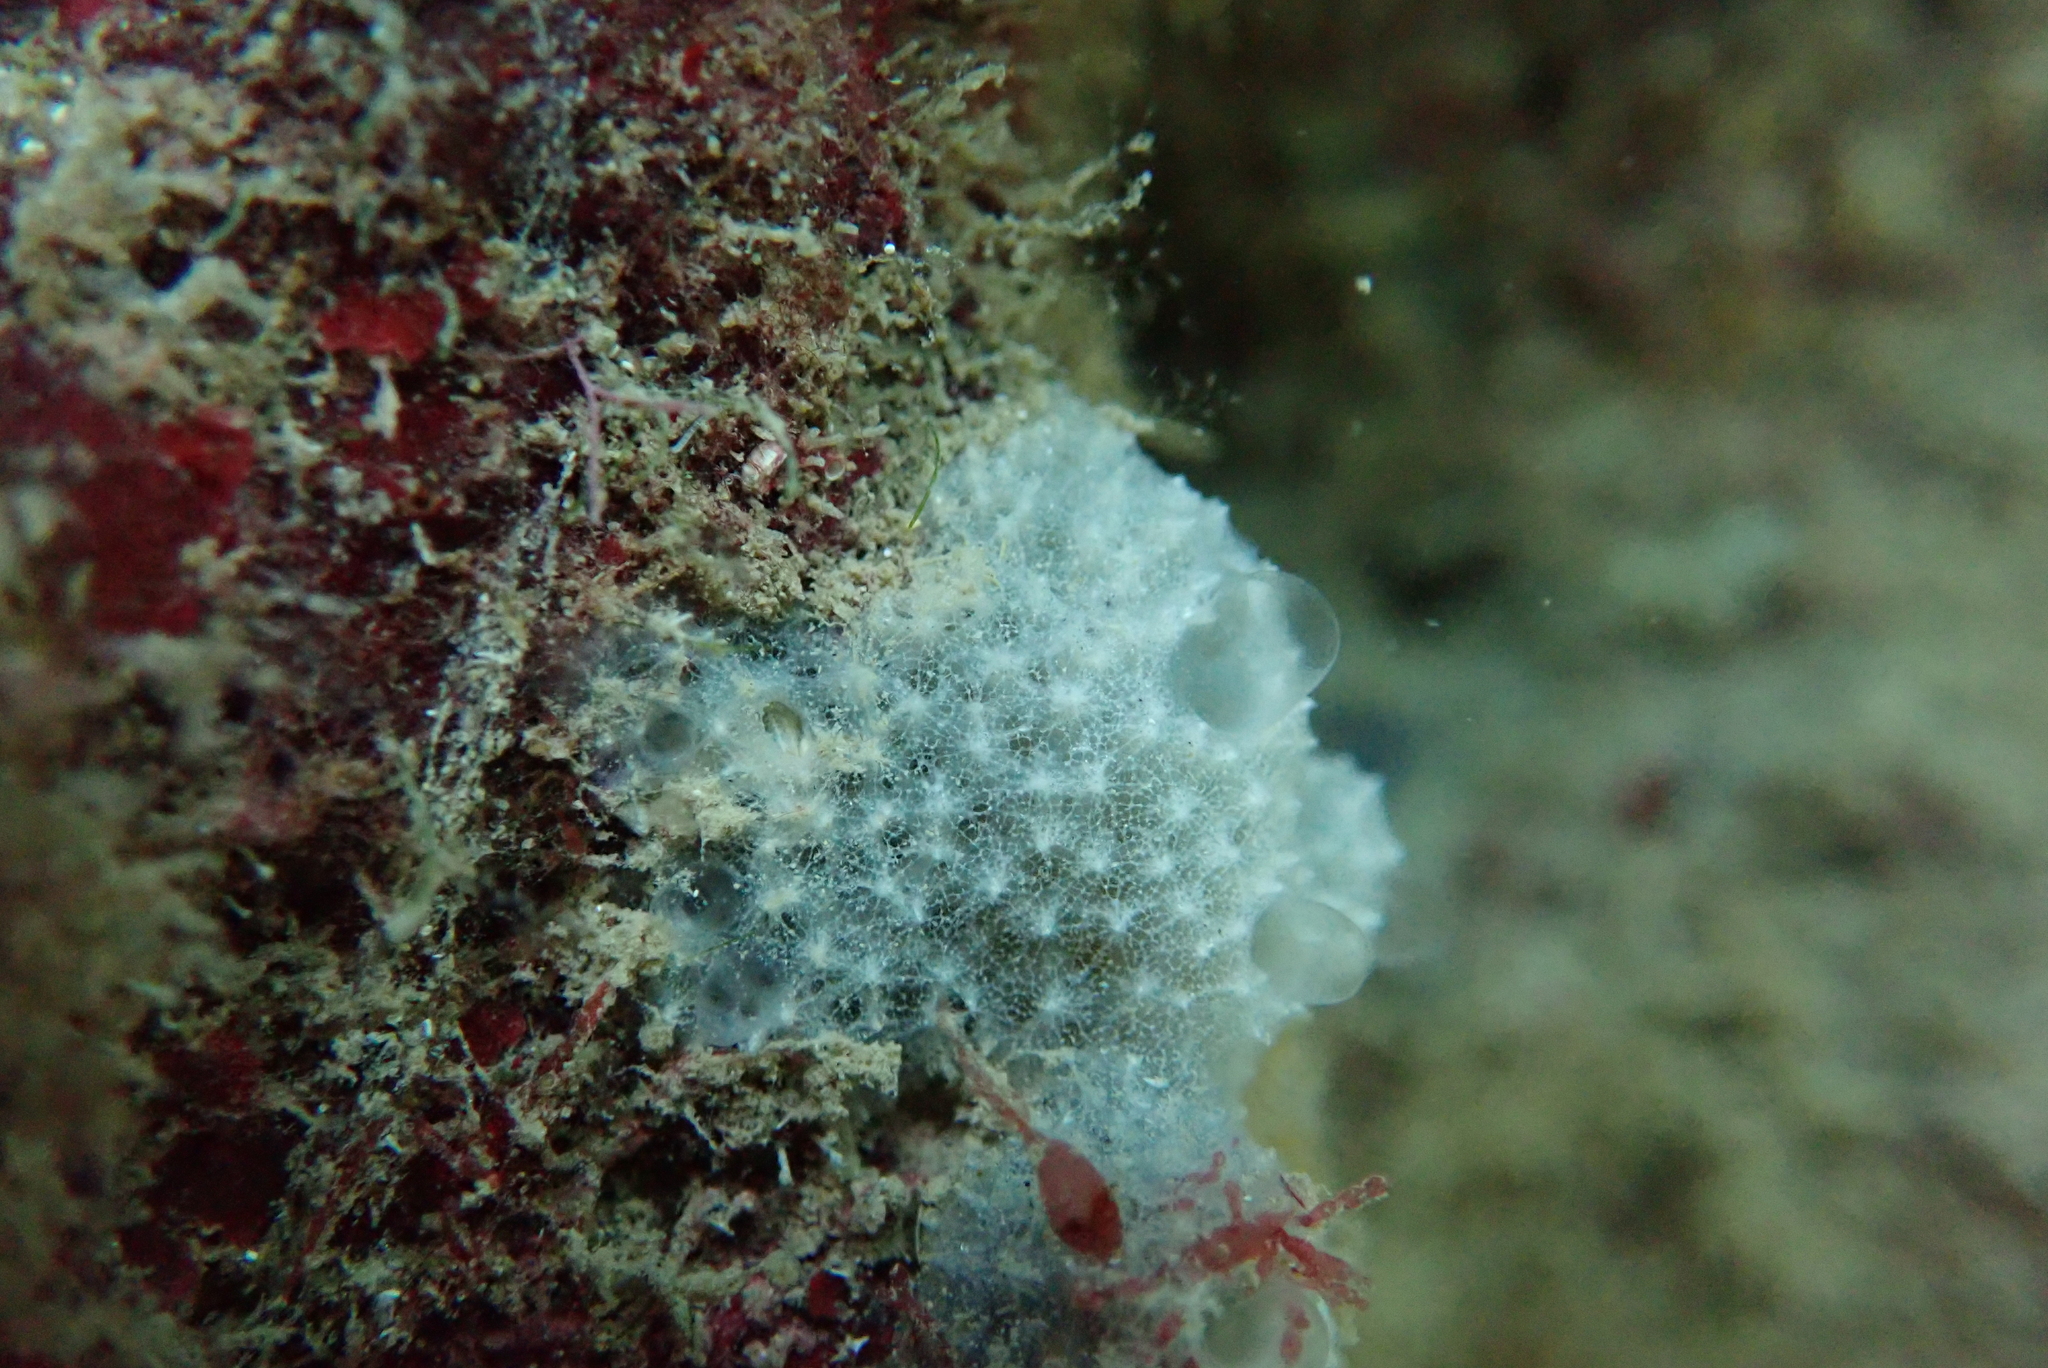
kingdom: Animalia
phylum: Porifera
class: Demospongiae
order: Dictyoceratida
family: Dysideidae
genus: Dysidea
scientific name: Dysidea fragilis
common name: Goosebump sponge
